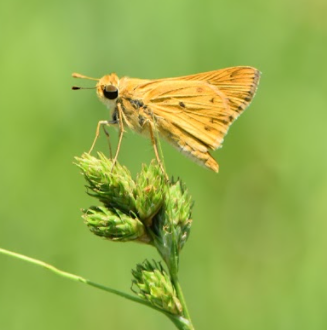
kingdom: Animalia
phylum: Arthropoda
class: Insecta
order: Lepidoptera
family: Hesperiidae
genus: Hylephila
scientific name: Hylephila phyleus
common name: Fiery skipper
